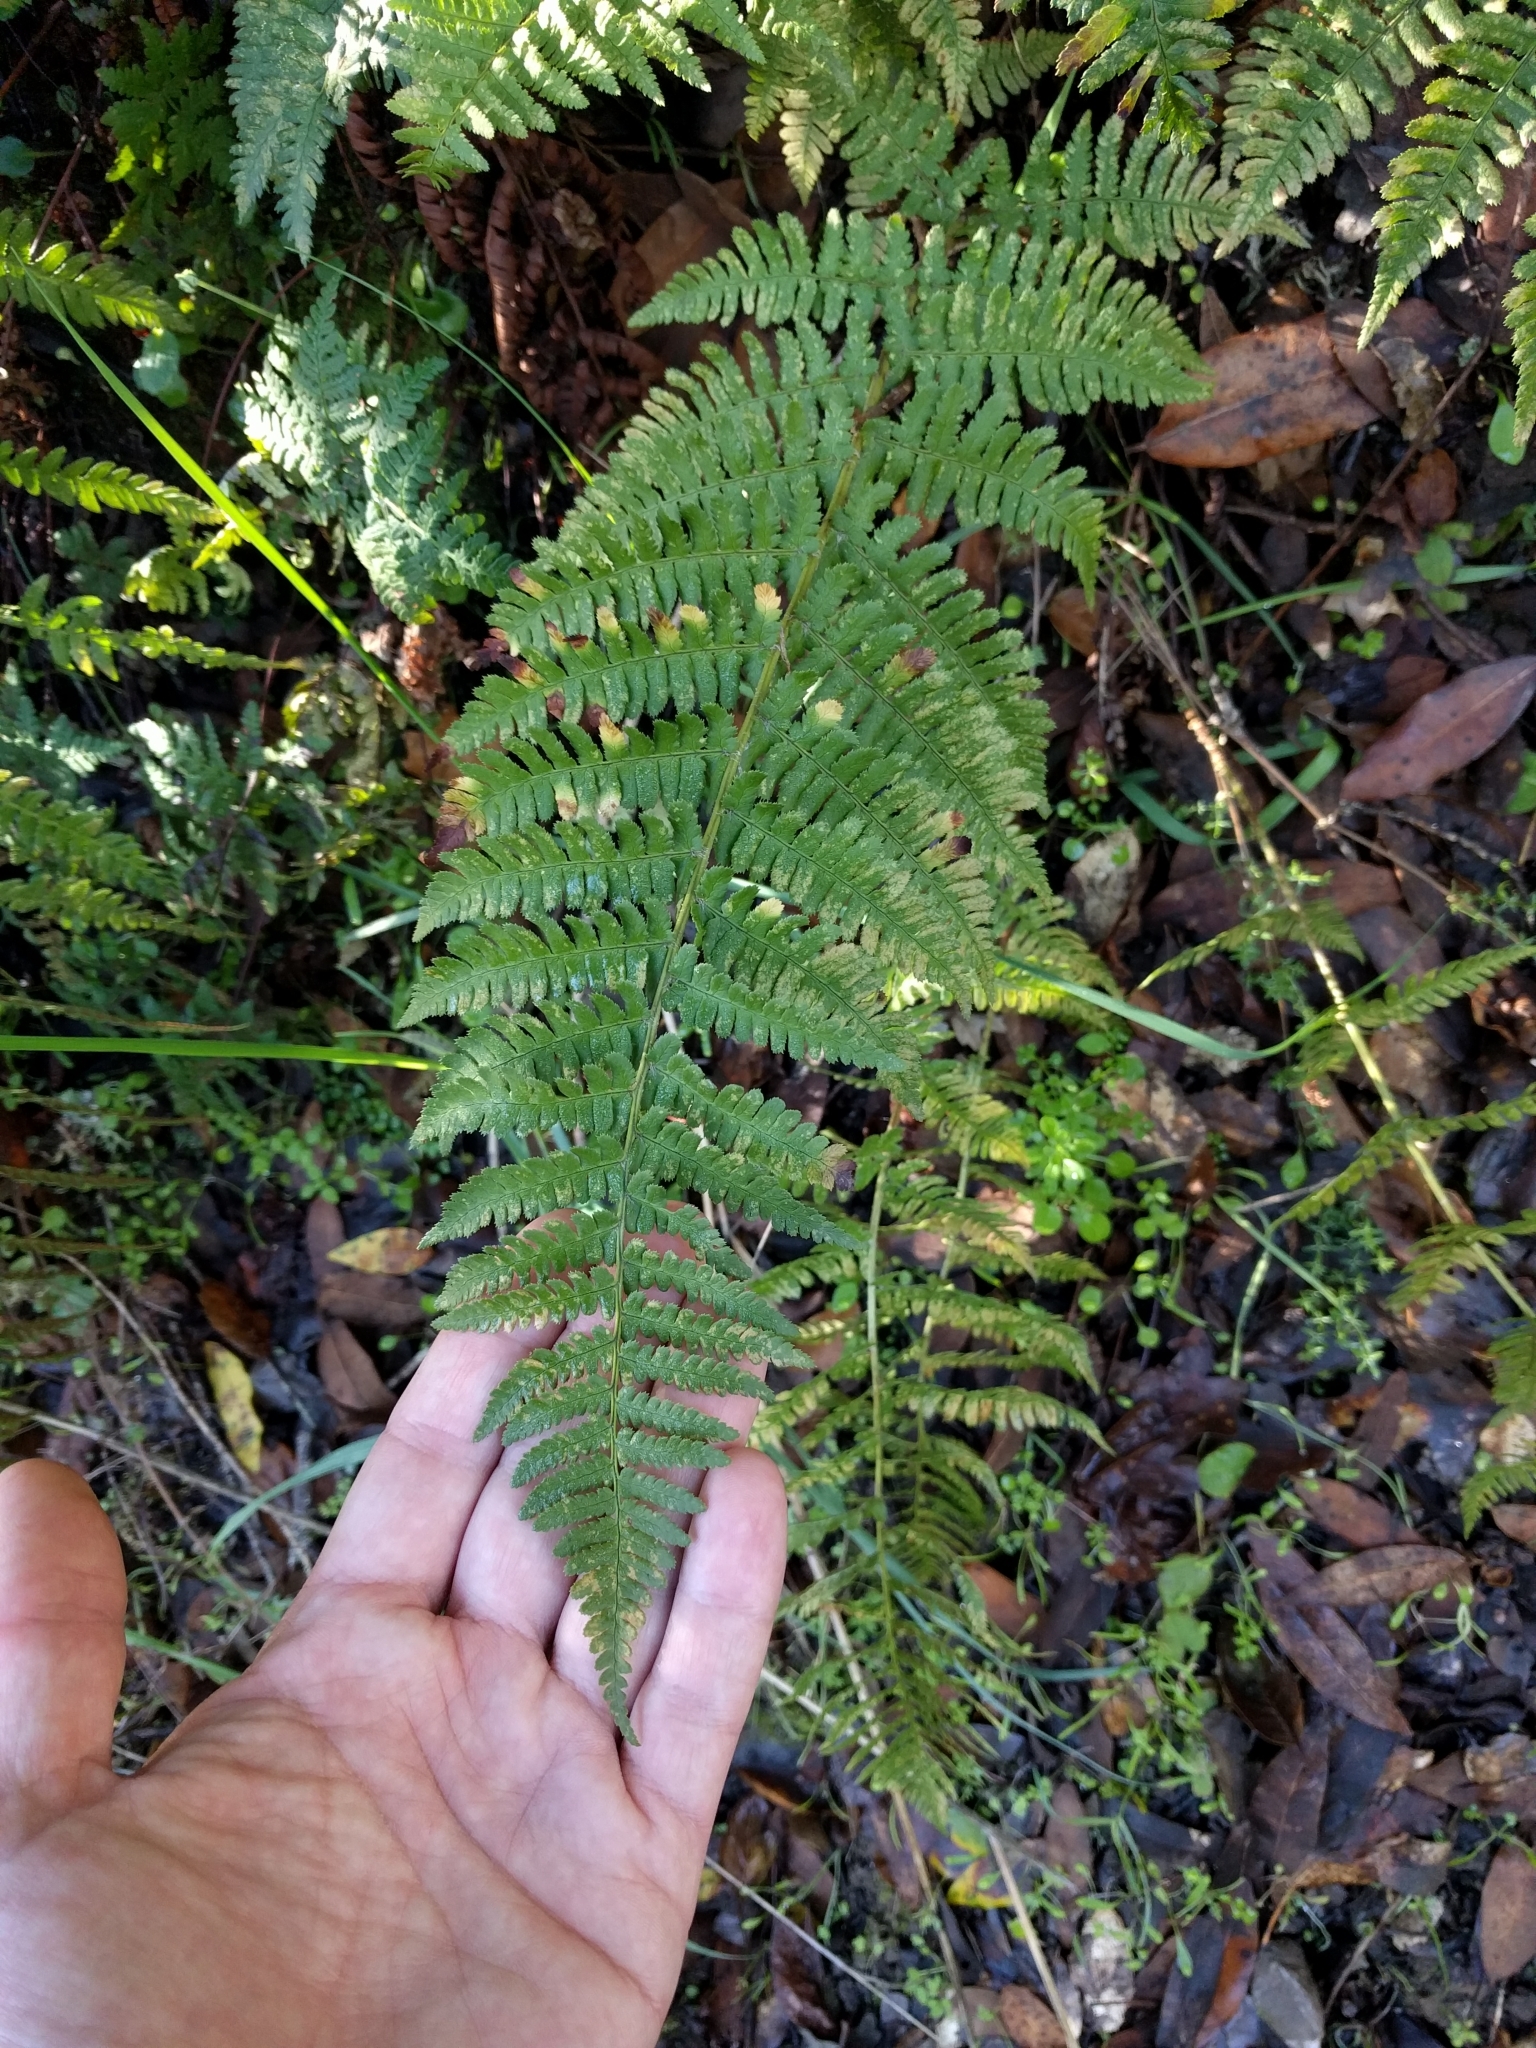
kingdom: Plantae
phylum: Tracheophyta
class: Polypodiopsida
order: Polypodiales
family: Dryopteridaceae
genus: Dryopteris
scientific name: Dryopteris arguta
